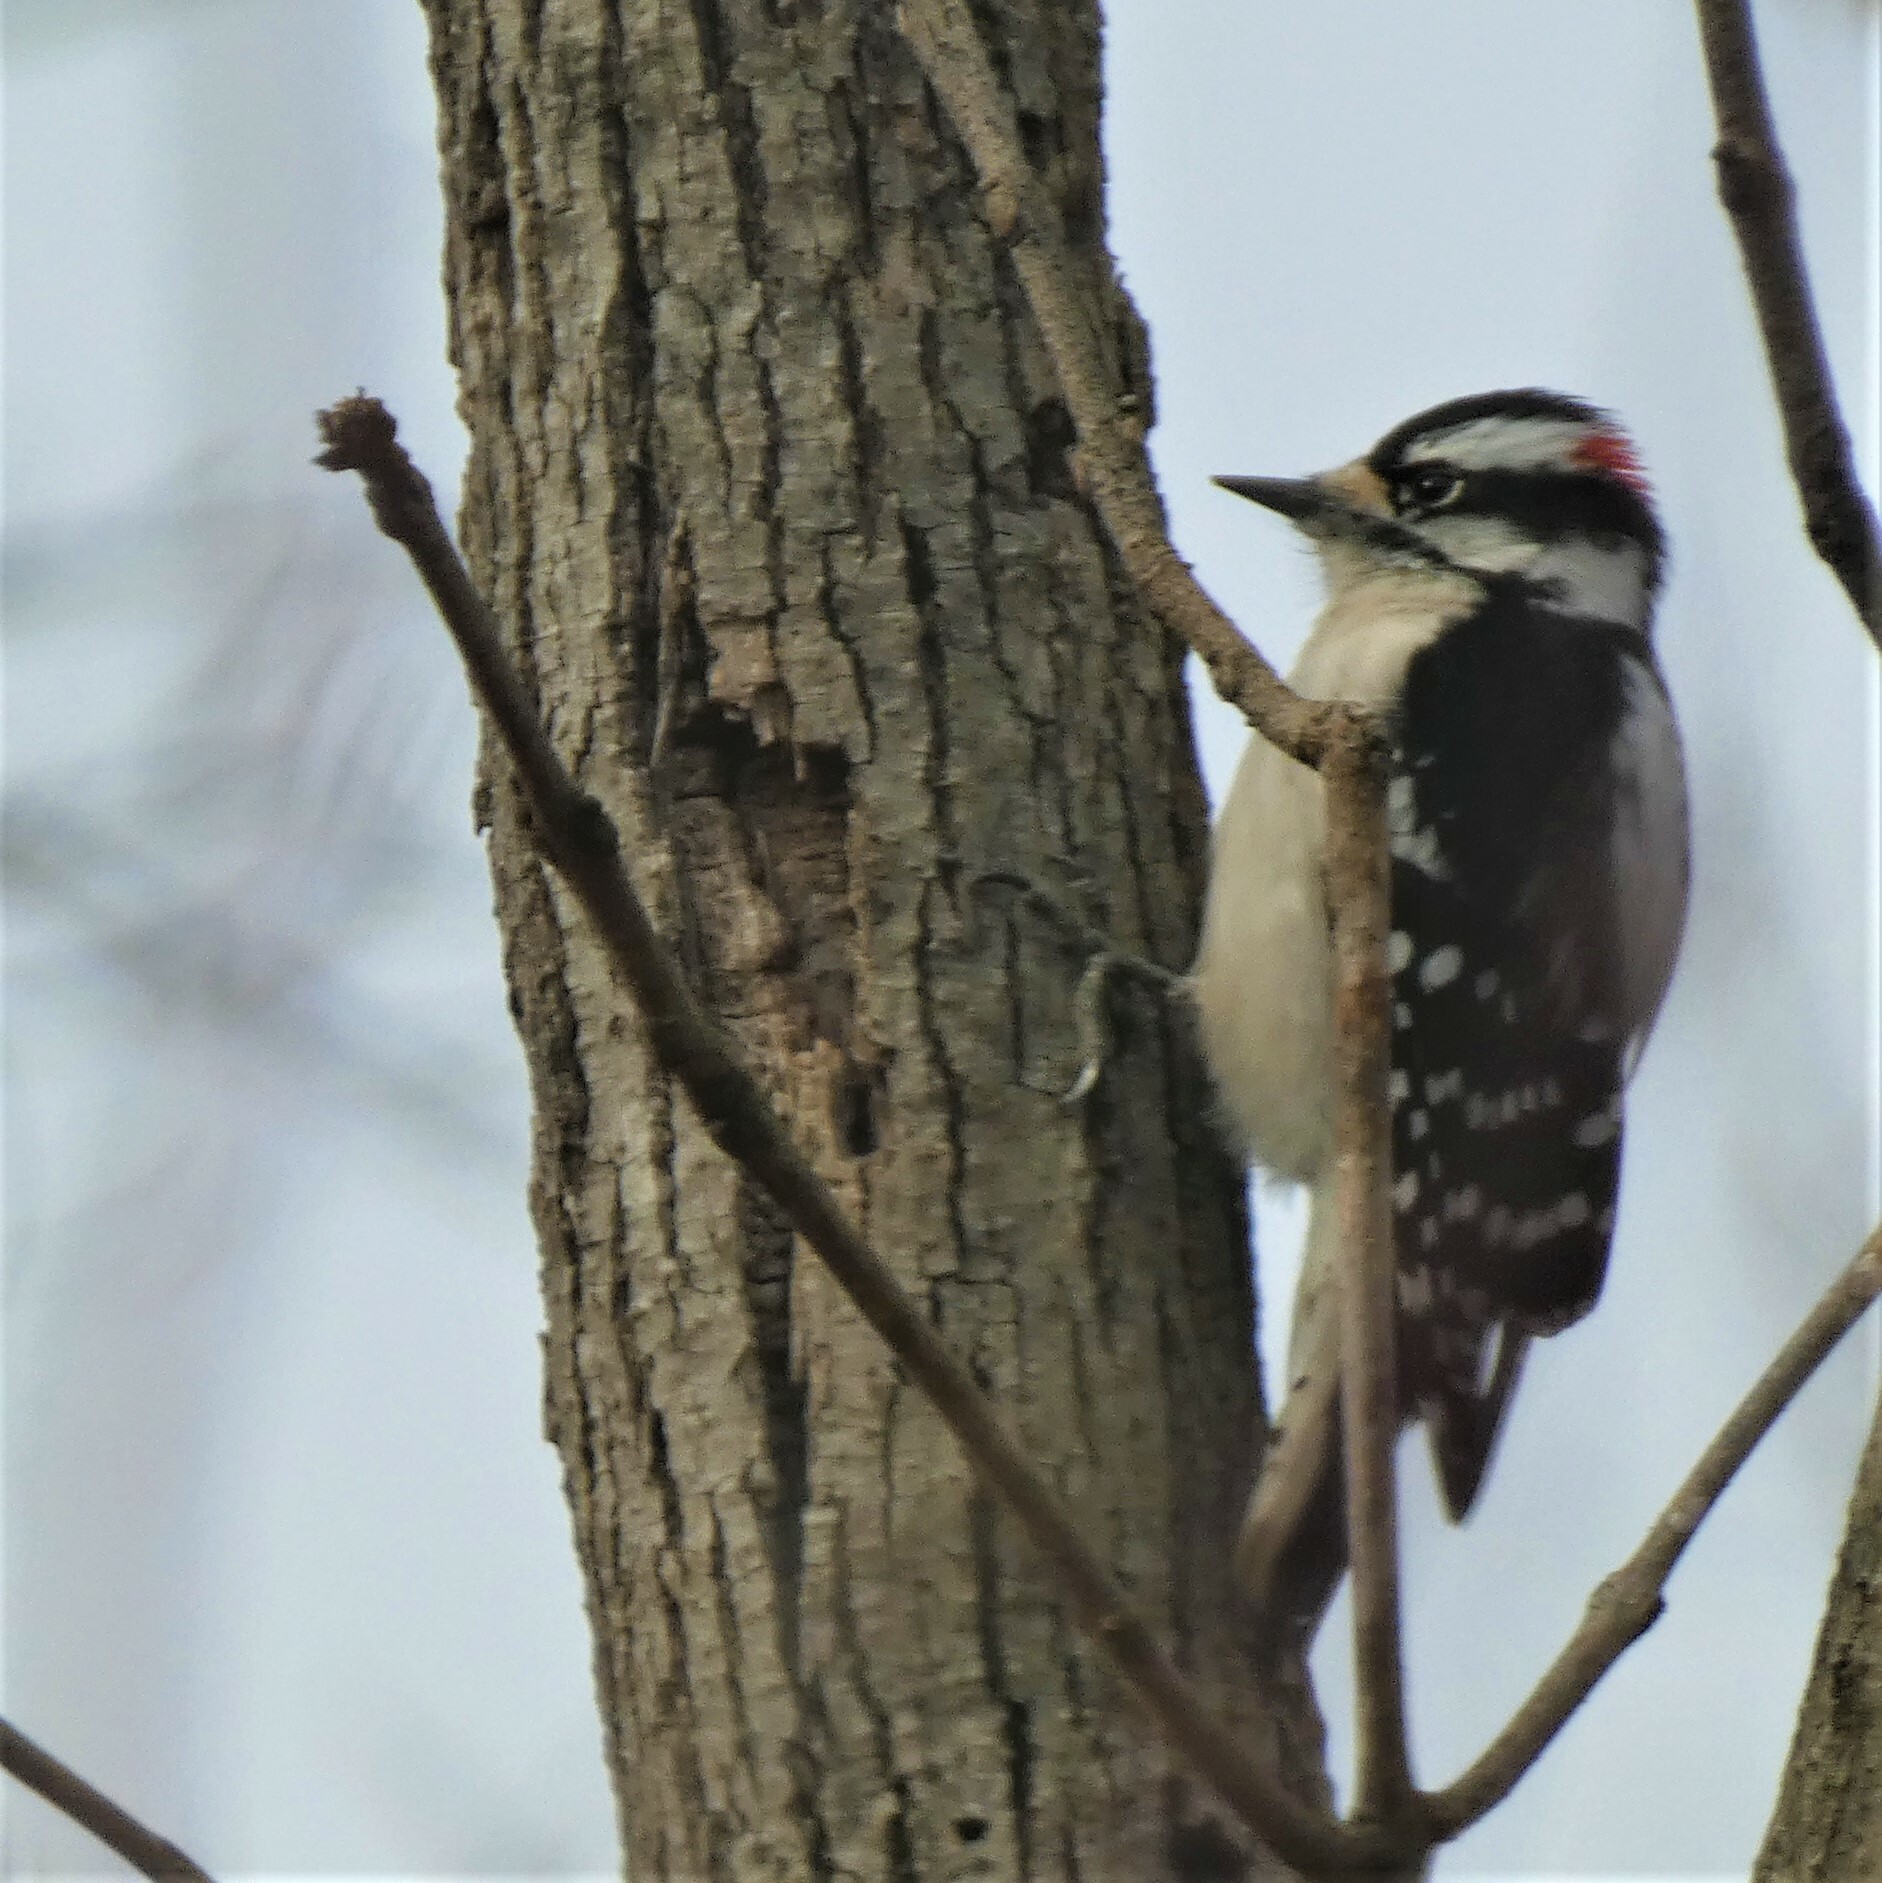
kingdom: Animalia
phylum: Chordata
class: Aves
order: Piciformes
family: Picidae
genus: Dryobates
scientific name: Dryobates pubescens
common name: Downy woodpecker
